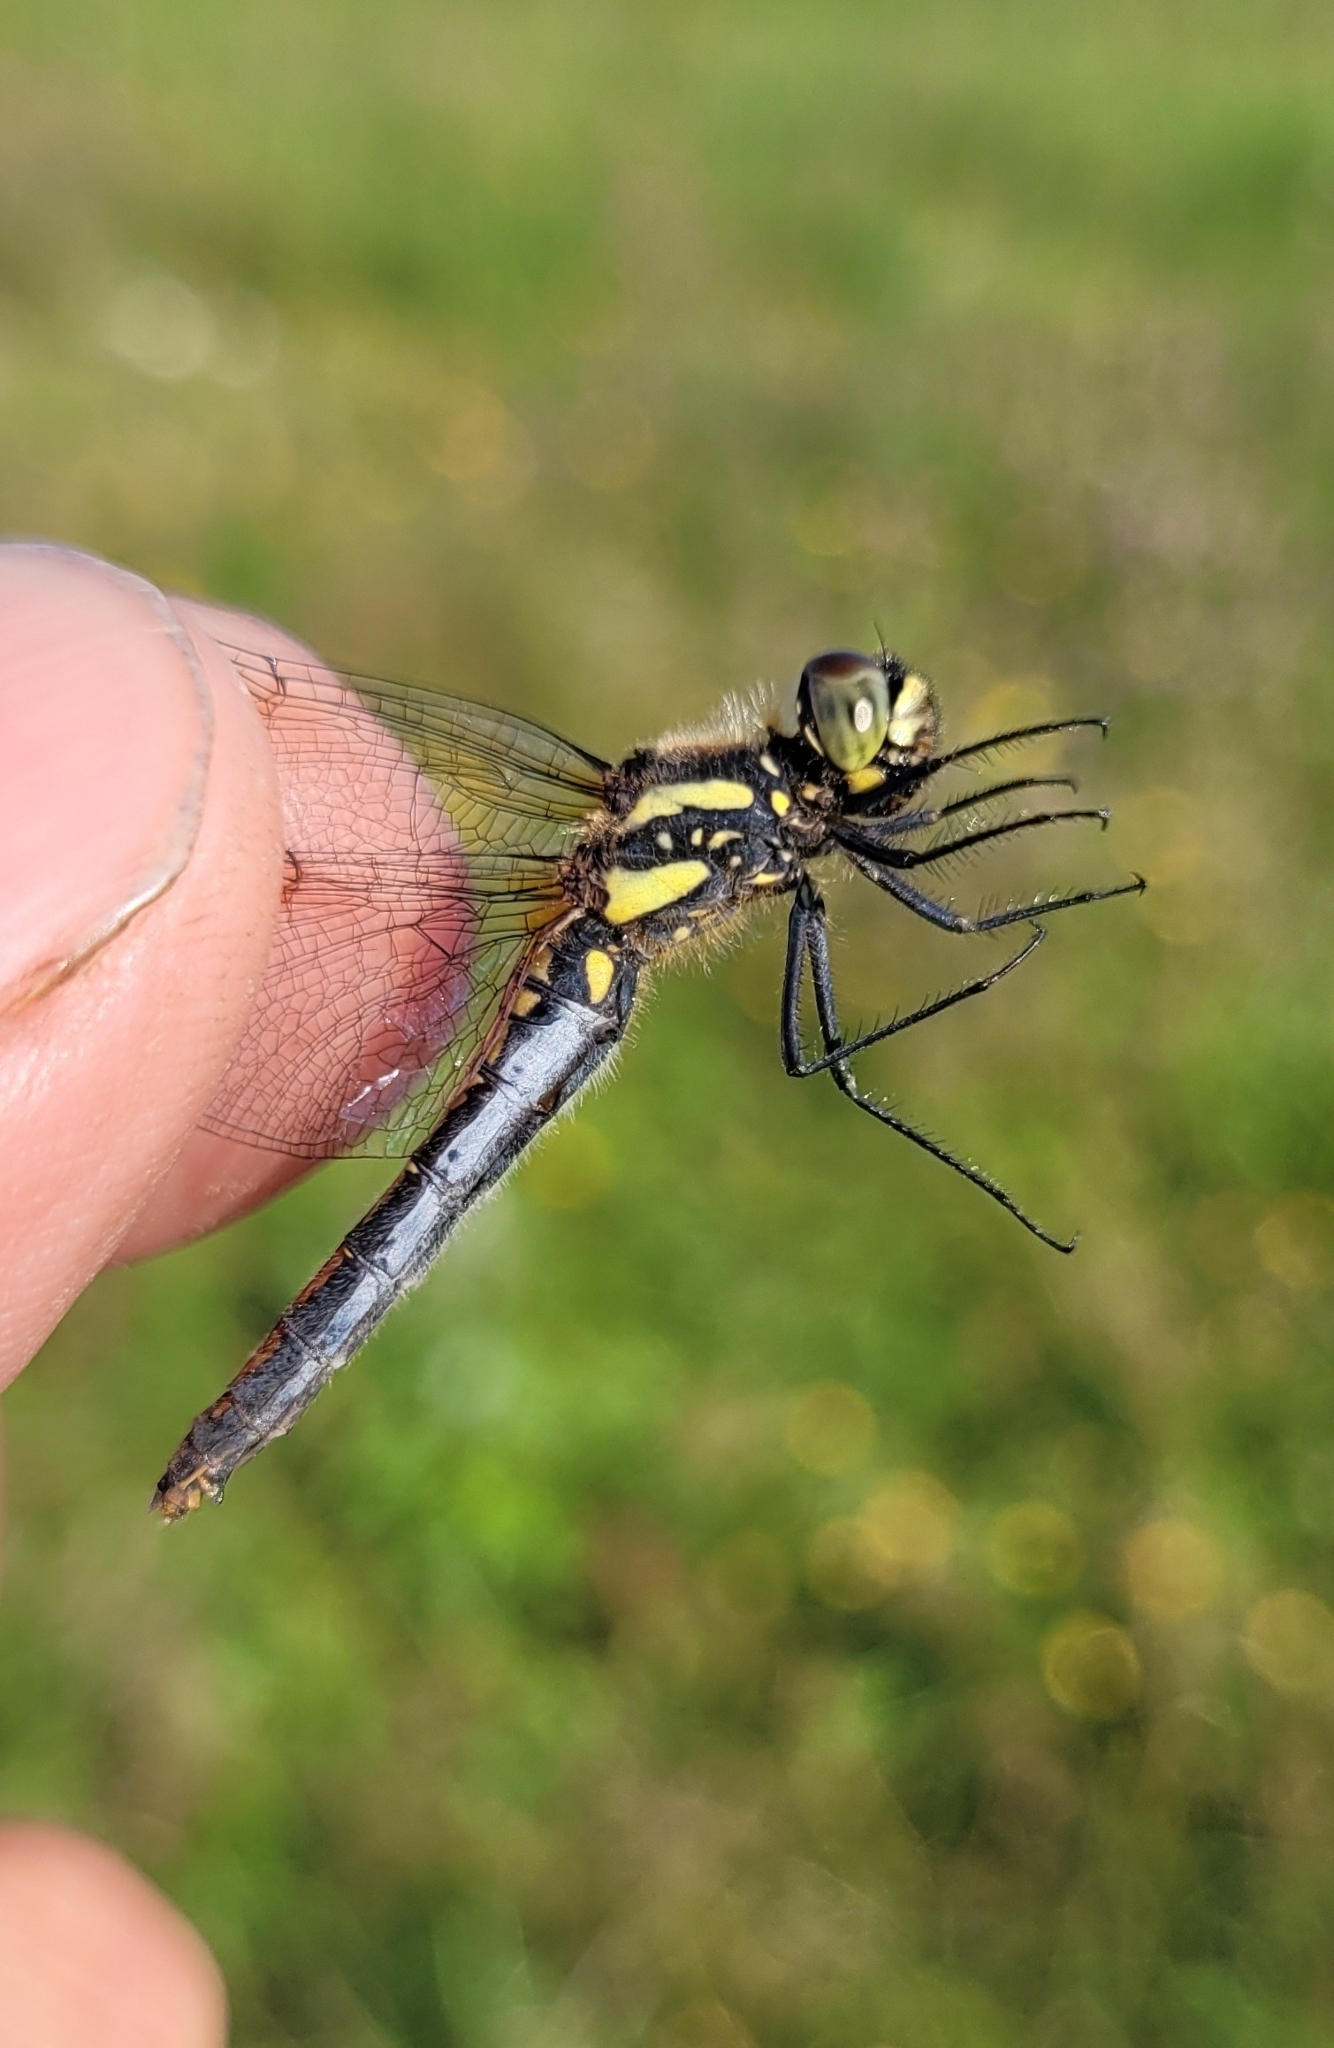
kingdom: Animalia
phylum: Arthropoda
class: Insecta
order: Odonata
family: Libellulidae
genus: Sympetrum
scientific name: Sympetrum danae
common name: Black darter
